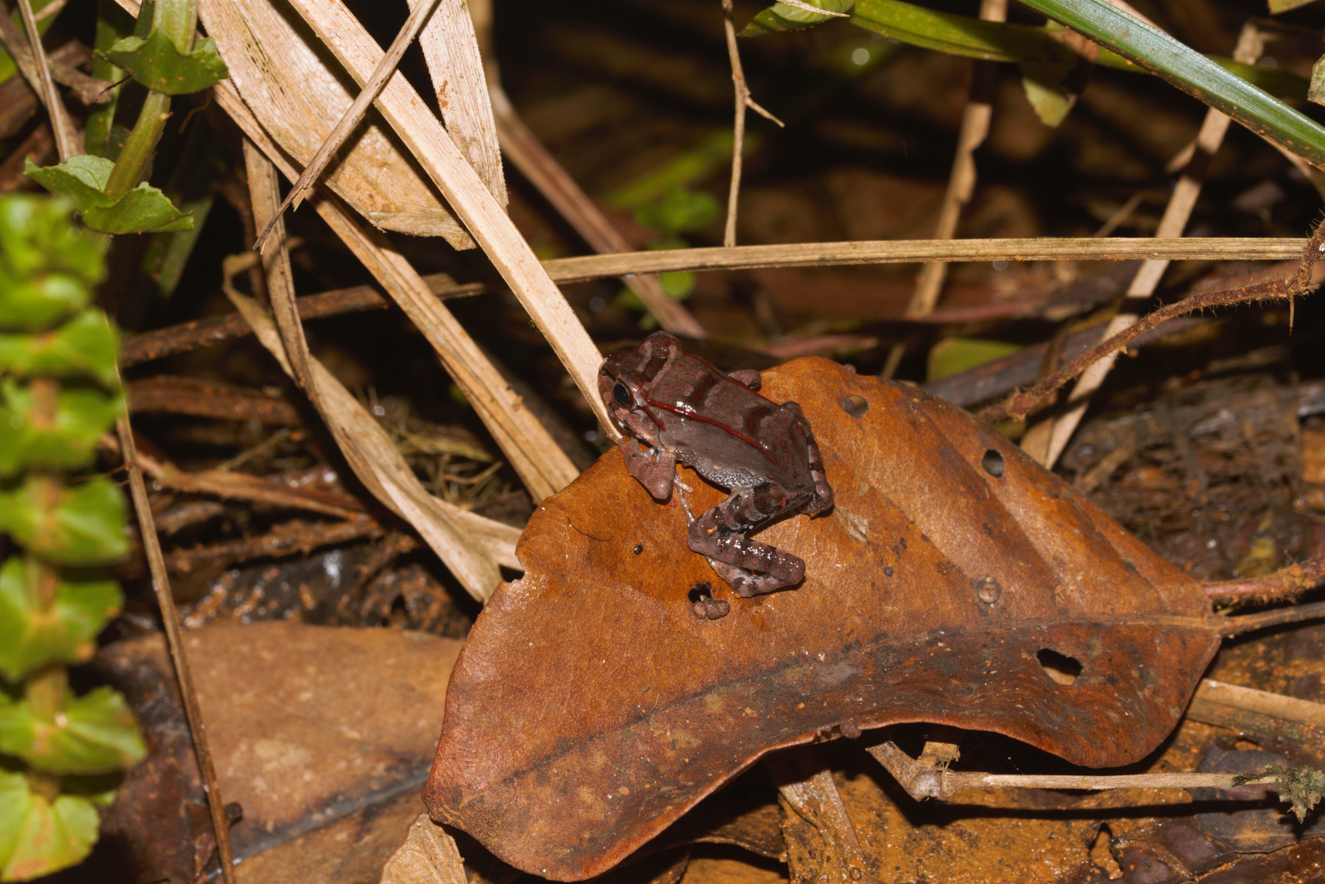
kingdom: Animalia
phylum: Chordata
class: Amphibia
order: Anura
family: Leptodactylidae
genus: Leptodactylus
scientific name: Leptodactylus knudseni
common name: Knudsen's frog
